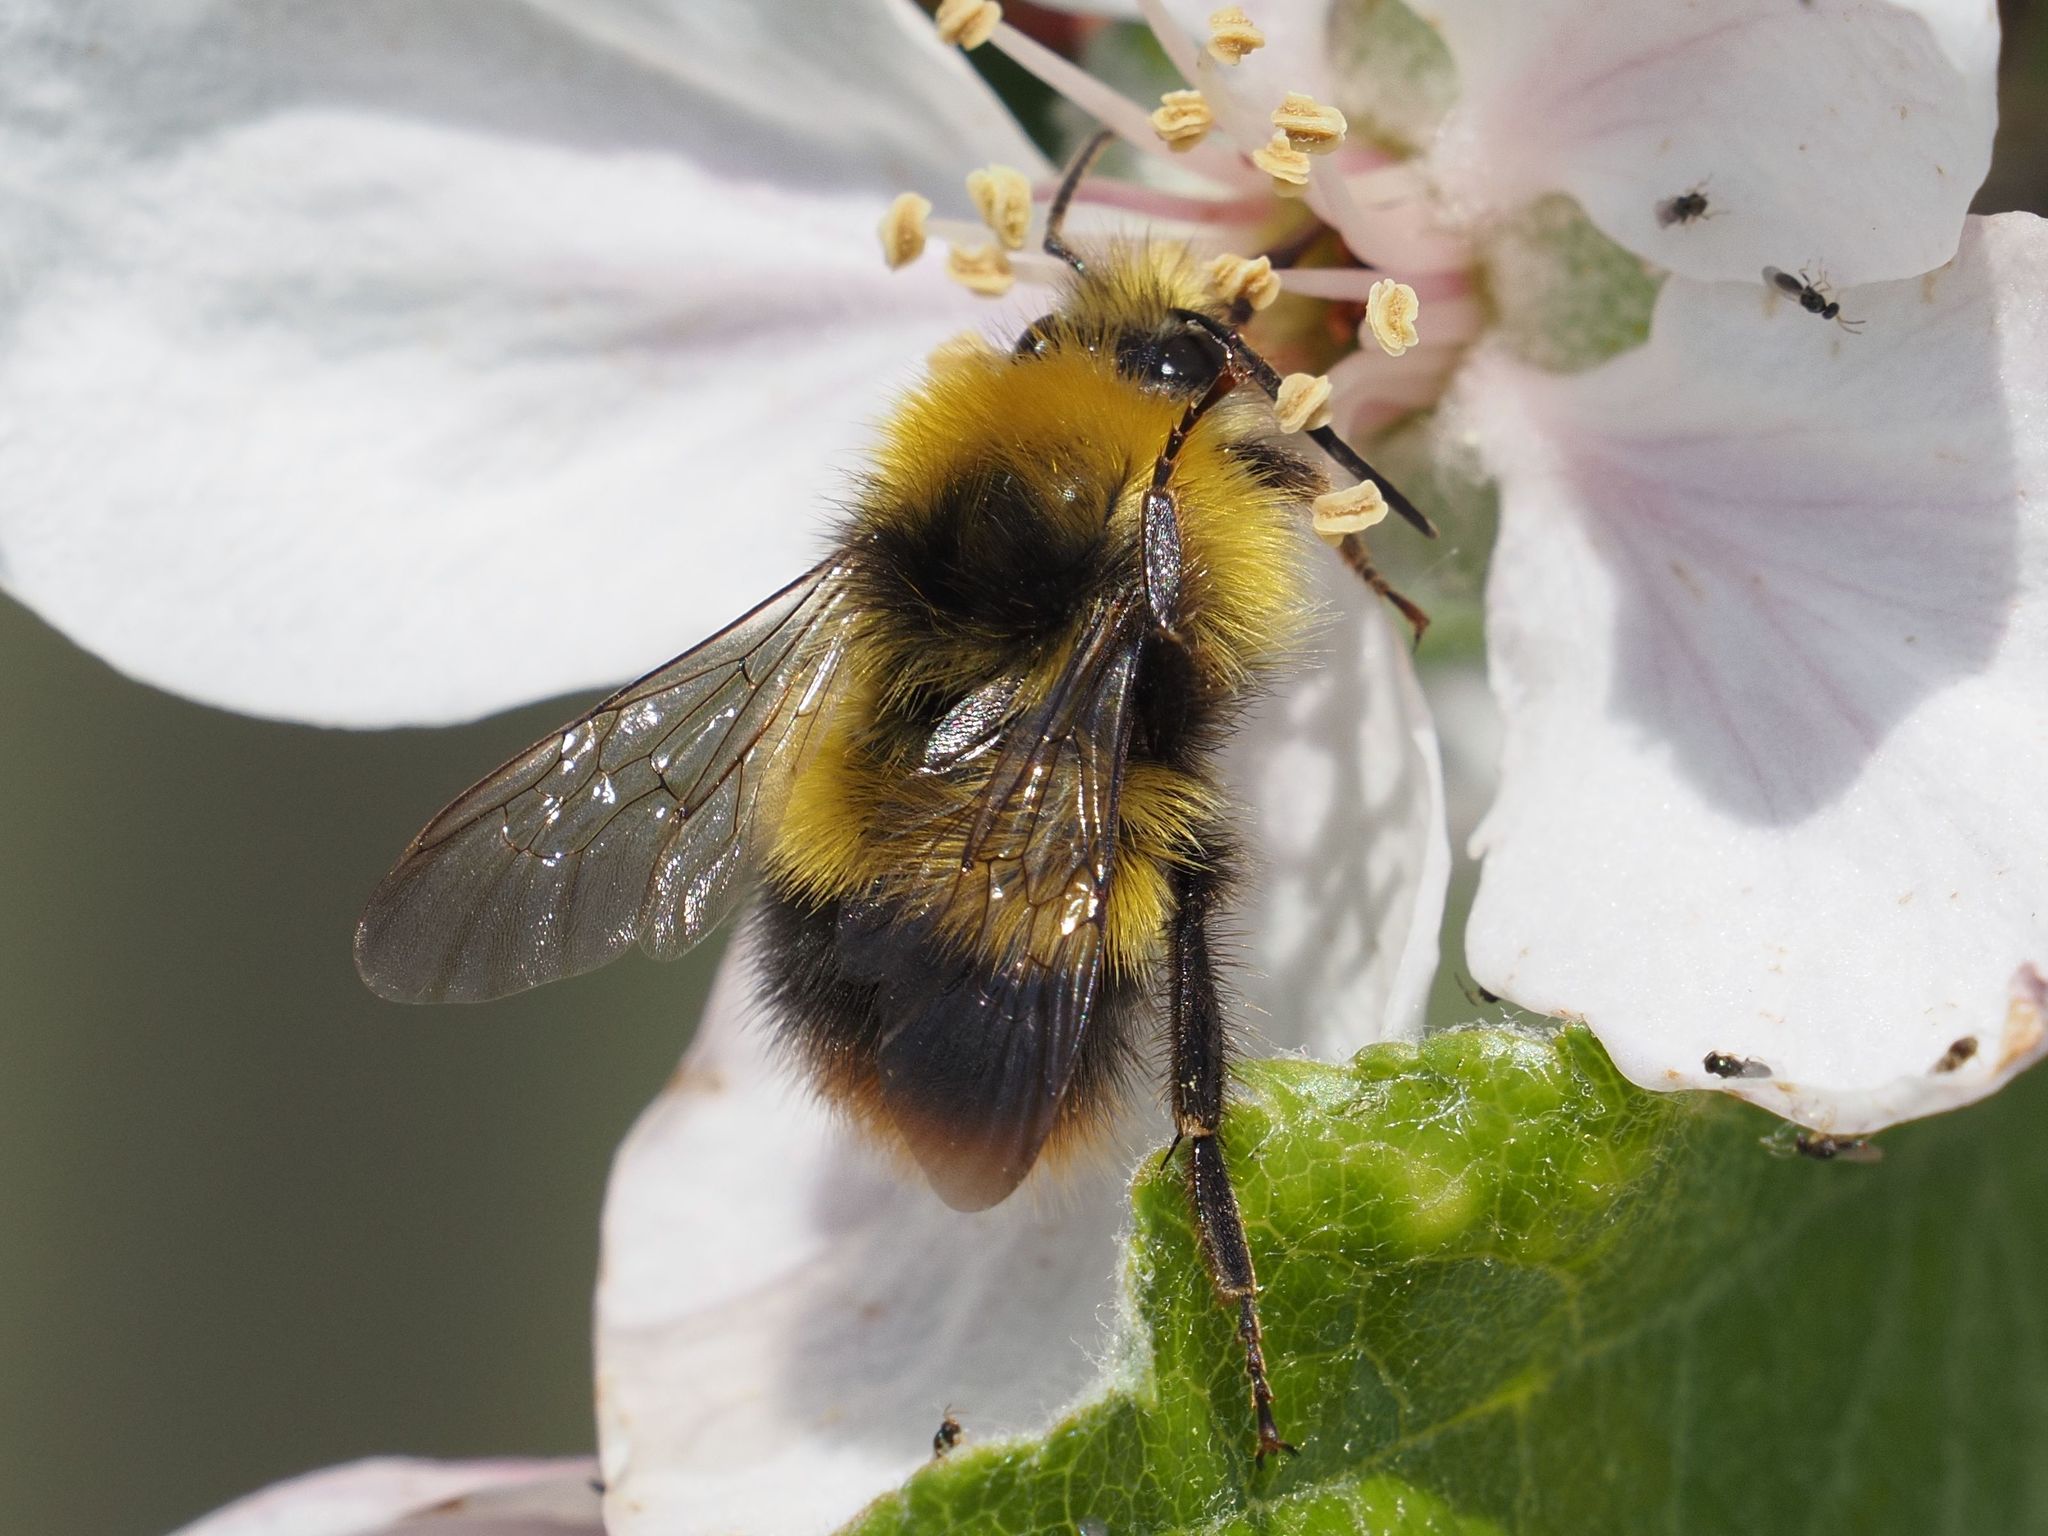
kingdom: Animalia
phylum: Arthropoda
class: Insecta
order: Hymenoptera
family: Apidae
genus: Bombus
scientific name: Bombus pratorum
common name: Early humble-bee
